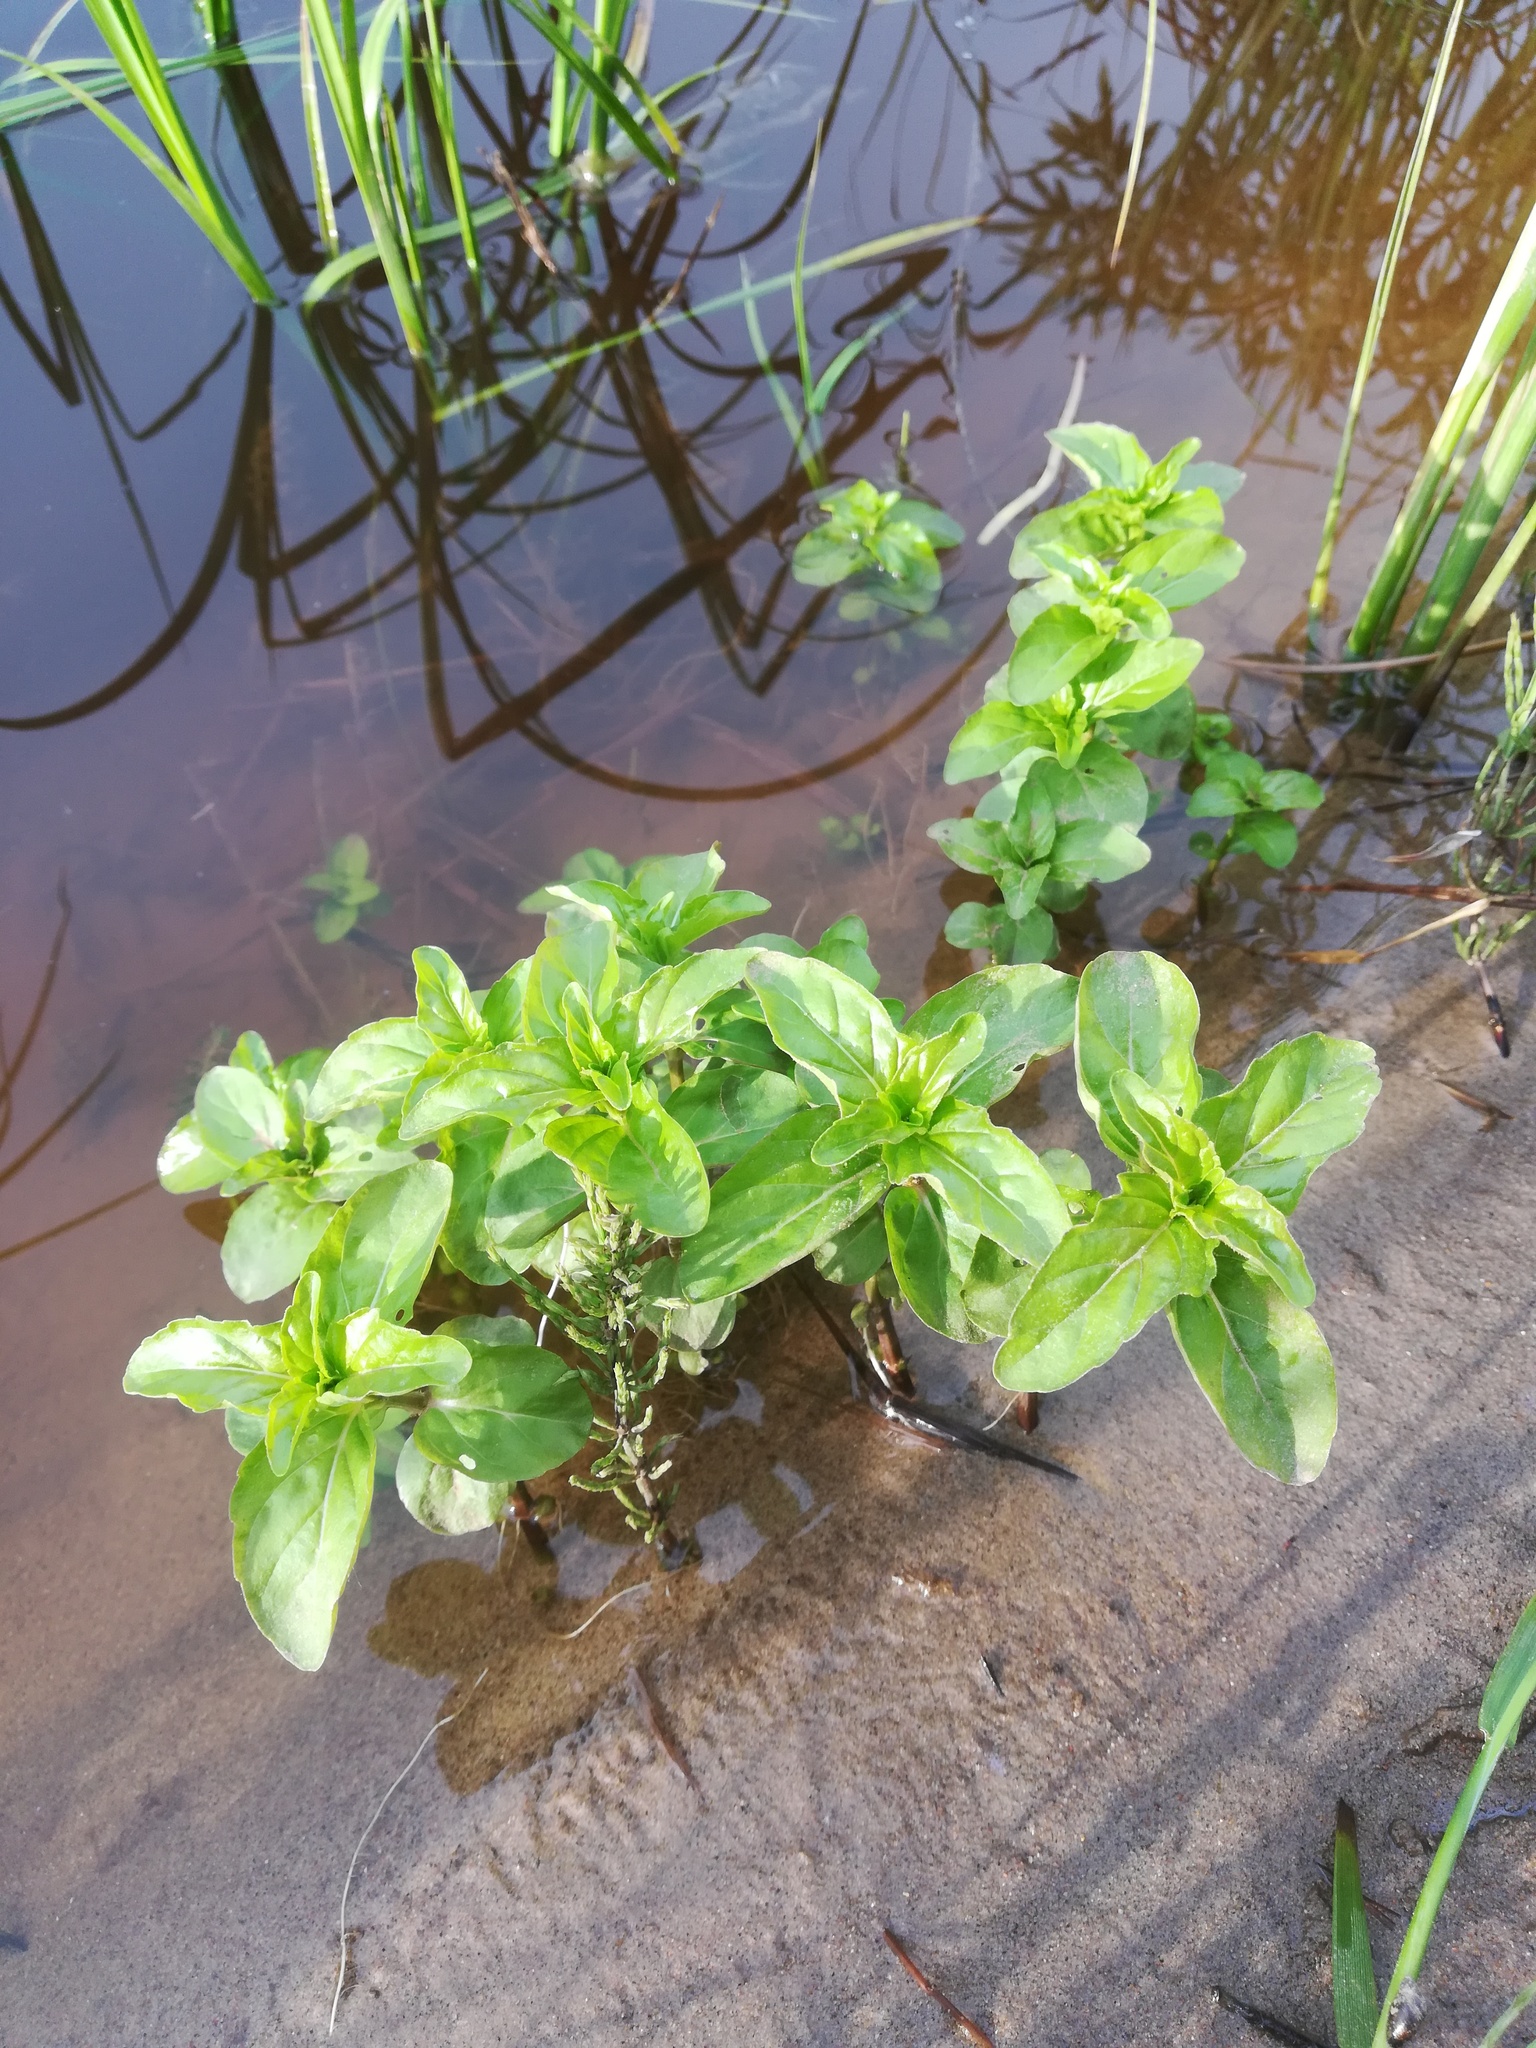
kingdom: Plantae
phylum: Tracheophyta
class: Magnoliopsida
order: Lamiales
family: Plantaginaceae
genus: Veronica
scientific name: Veronica beccabunga
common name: Brooklime
